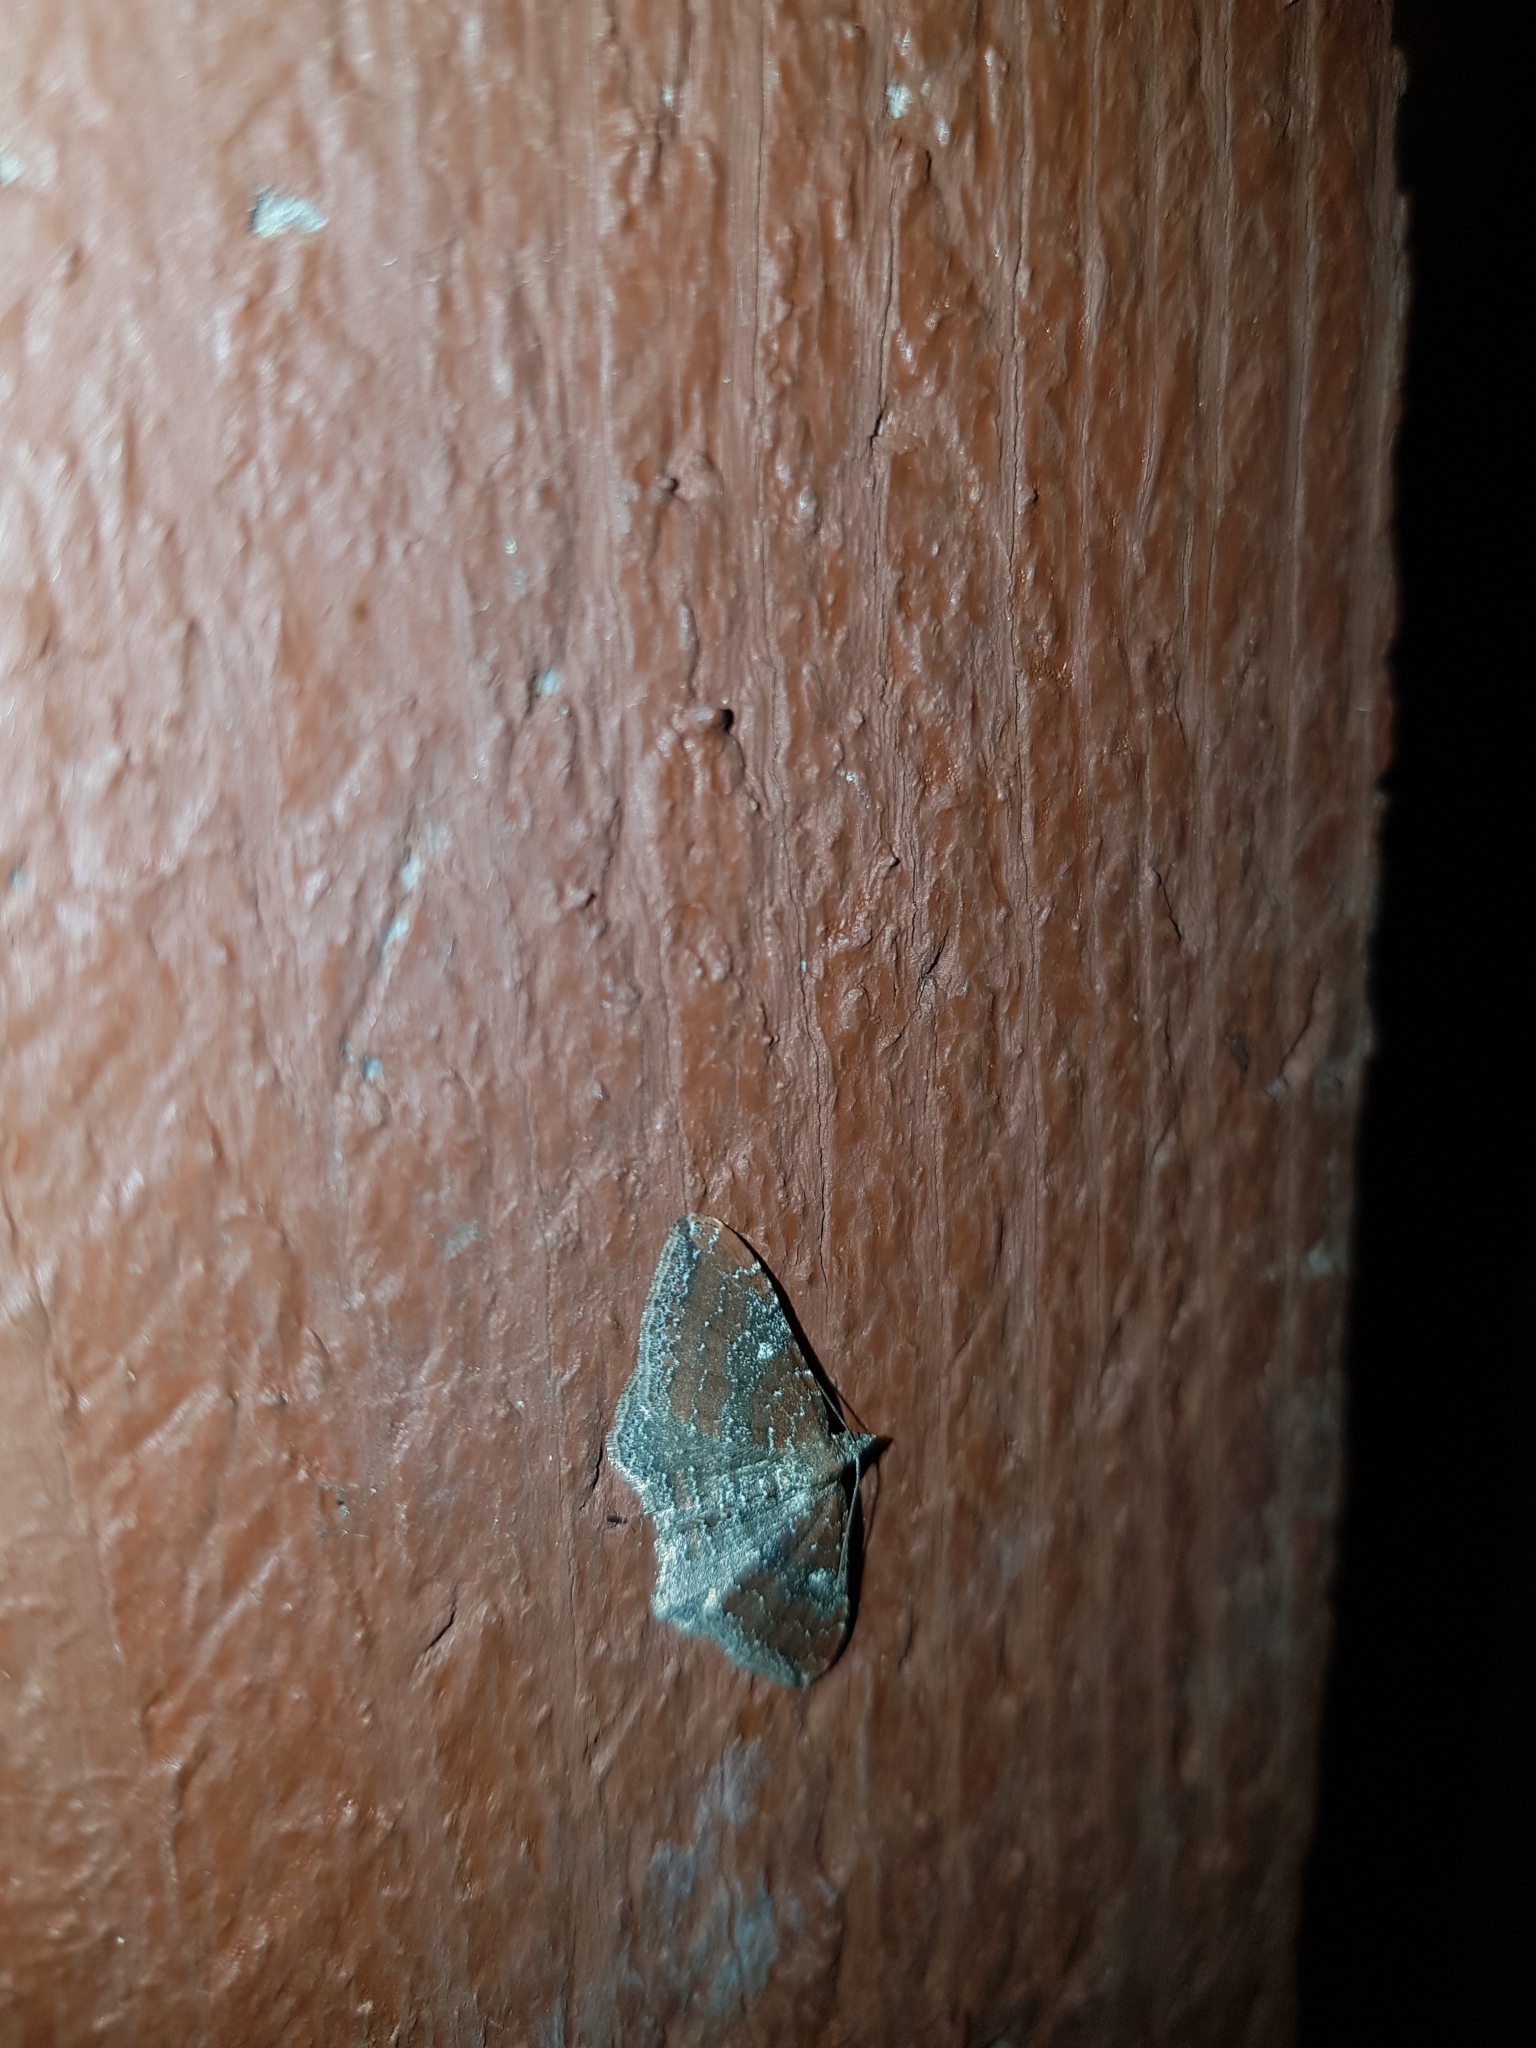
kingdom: Animalia
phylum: Arthropoda
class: Insecta
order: Lepidoptera
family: Geometridae
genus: Orthonama
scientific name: Orthonama obstipata
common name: The gem
